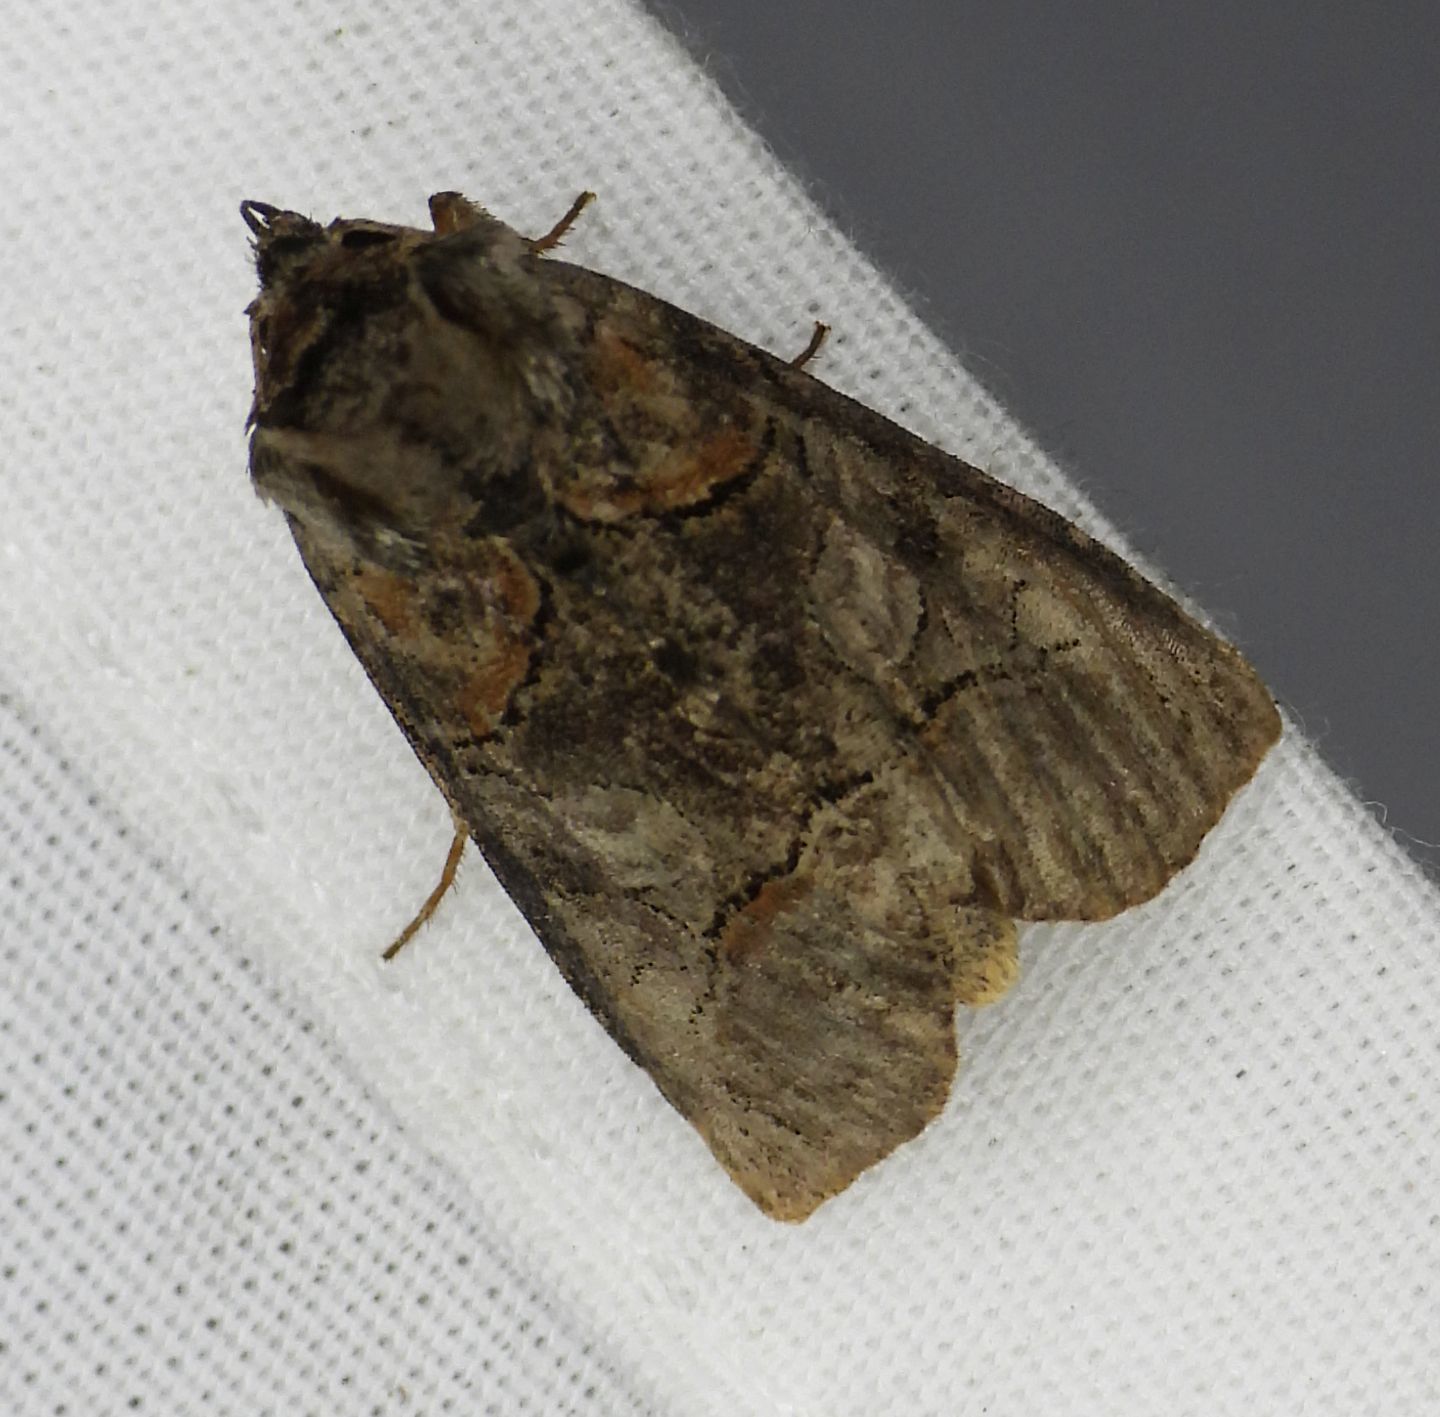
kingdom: Animalia
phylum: Arthropoda
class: Insecta
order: Lepidoptera
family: Notodontidae
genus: Gluphisia
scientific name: Gluphisia septentrionis
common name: Common gluphisia
